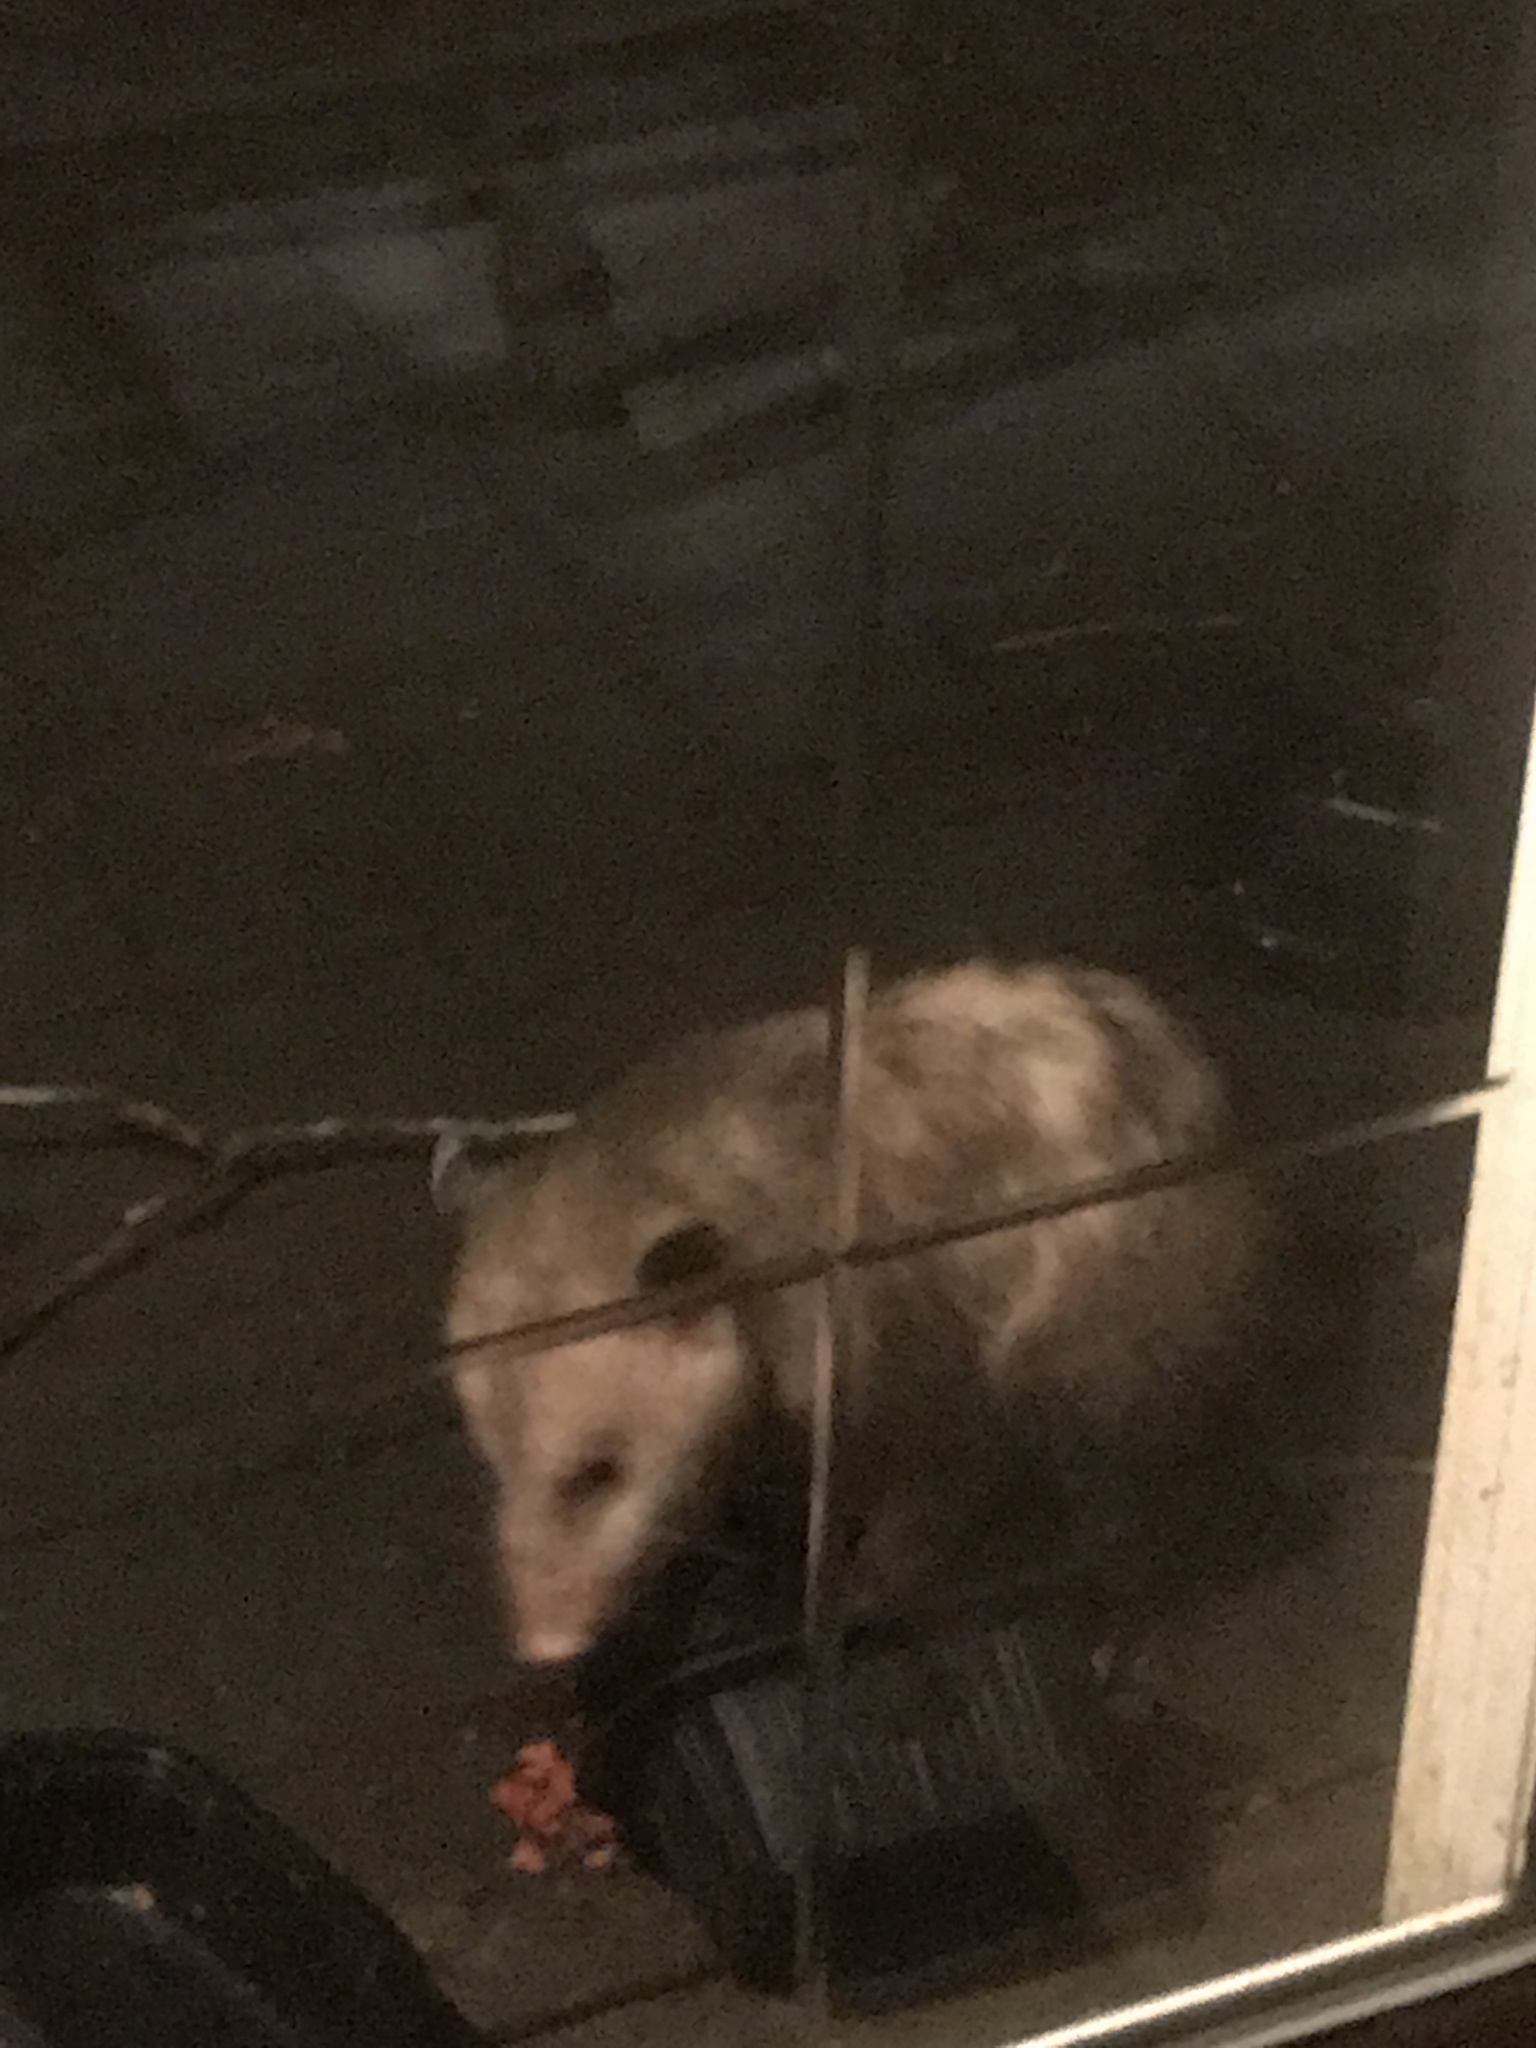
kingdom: Animalia
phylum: Chordata
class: Mammalia
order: Didelphimorphia
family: Didelphidae
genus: Didelphis
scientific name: Didelphis virginiana
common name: Virginia opossum
